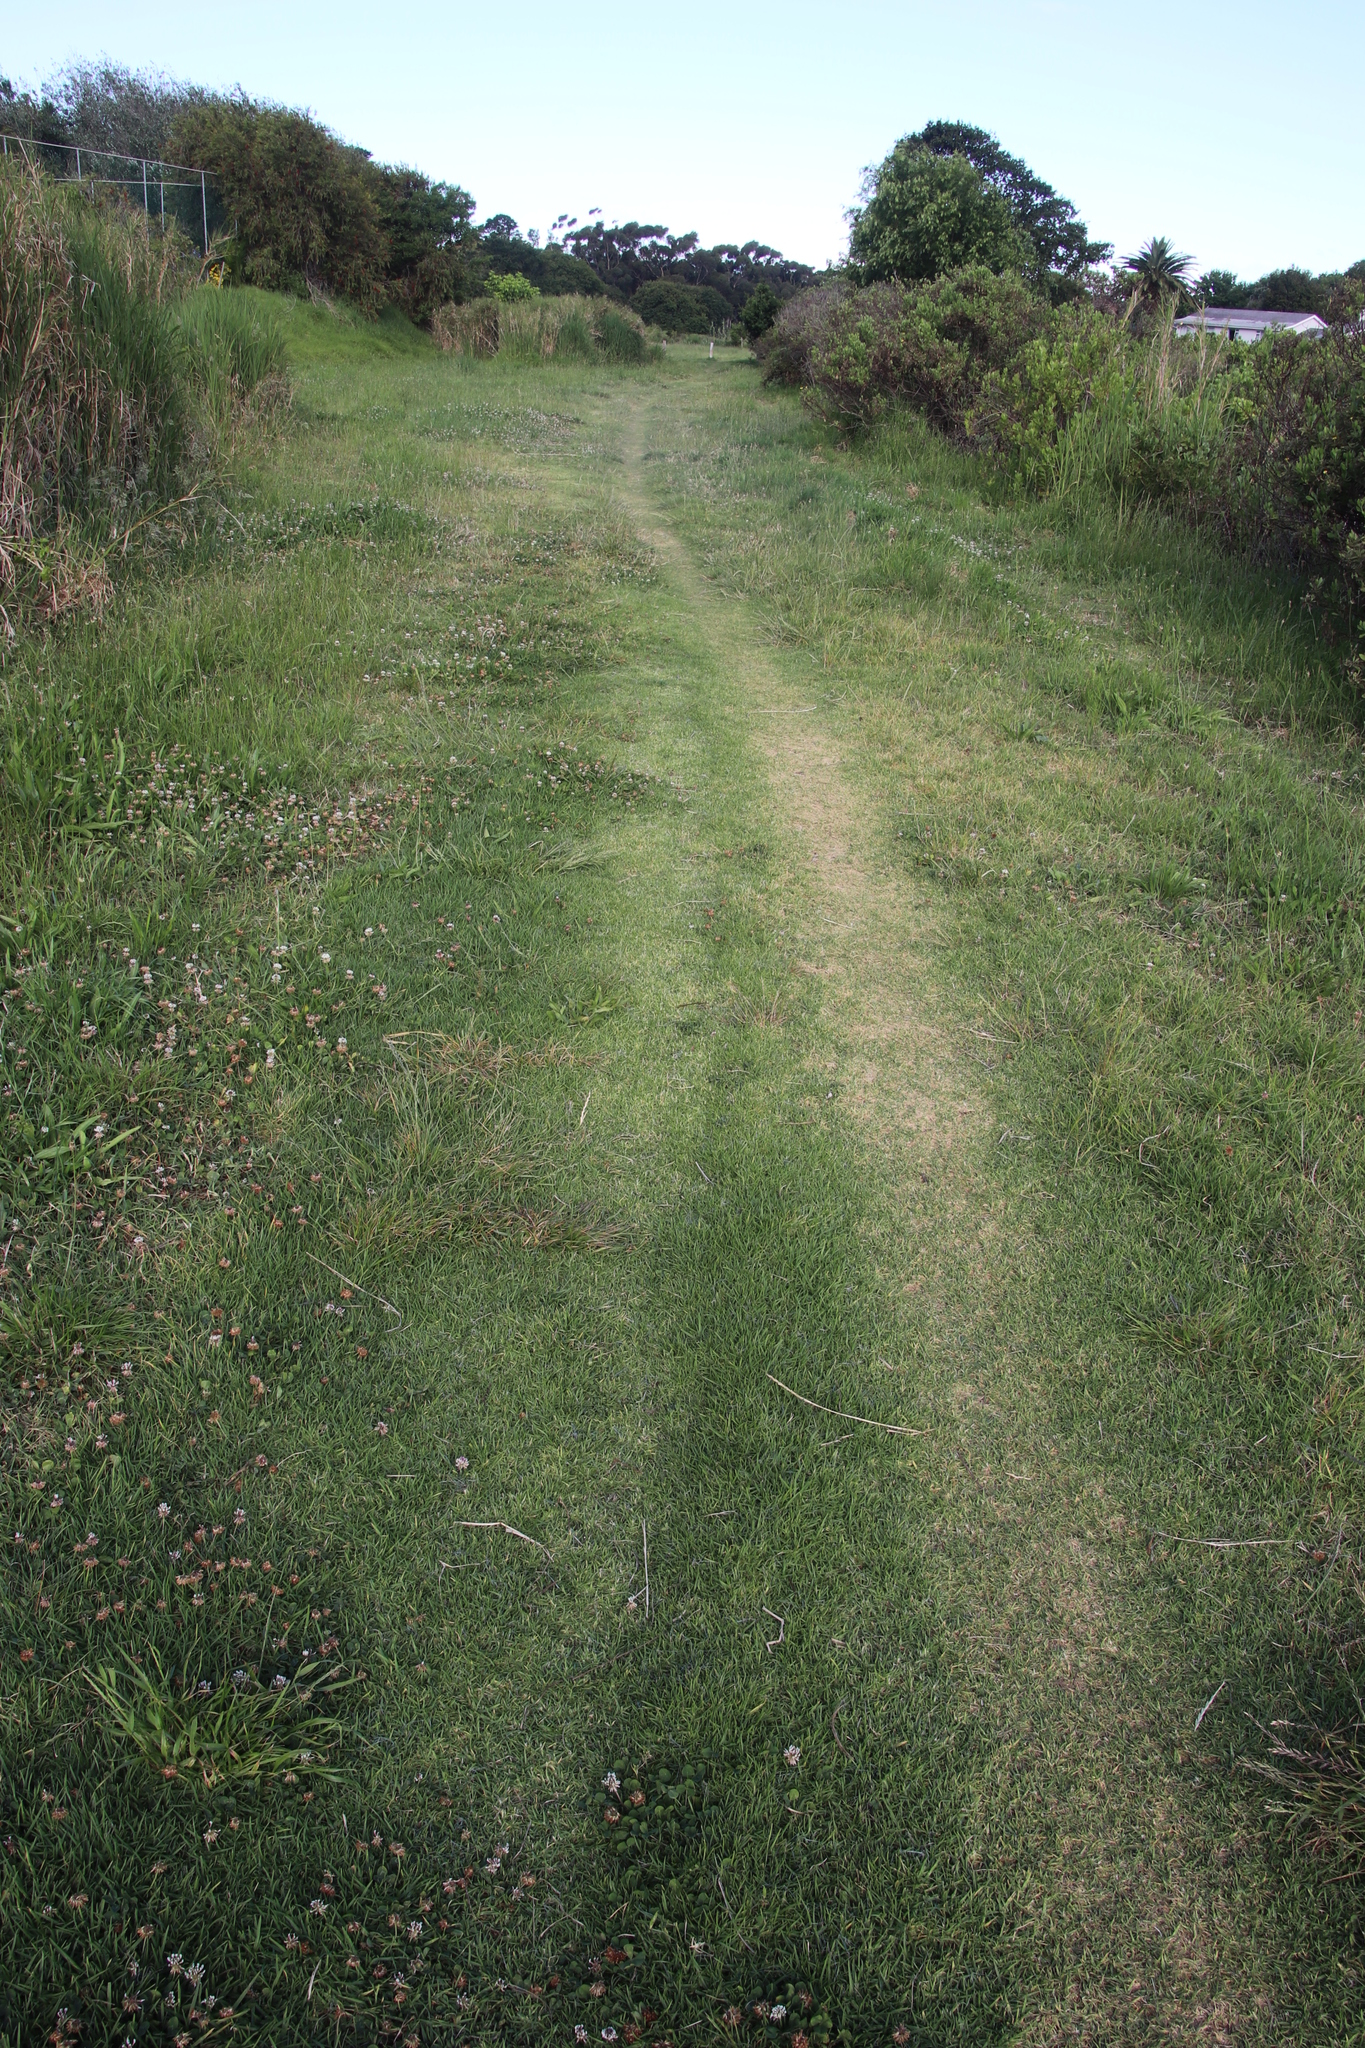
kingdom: Plantae
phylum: Tracheophyta
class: Liliopsida
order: Poales
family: Poaceae
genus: Cenchrus
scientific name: Cenchrus clandestinus
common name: Kikuyugrass
